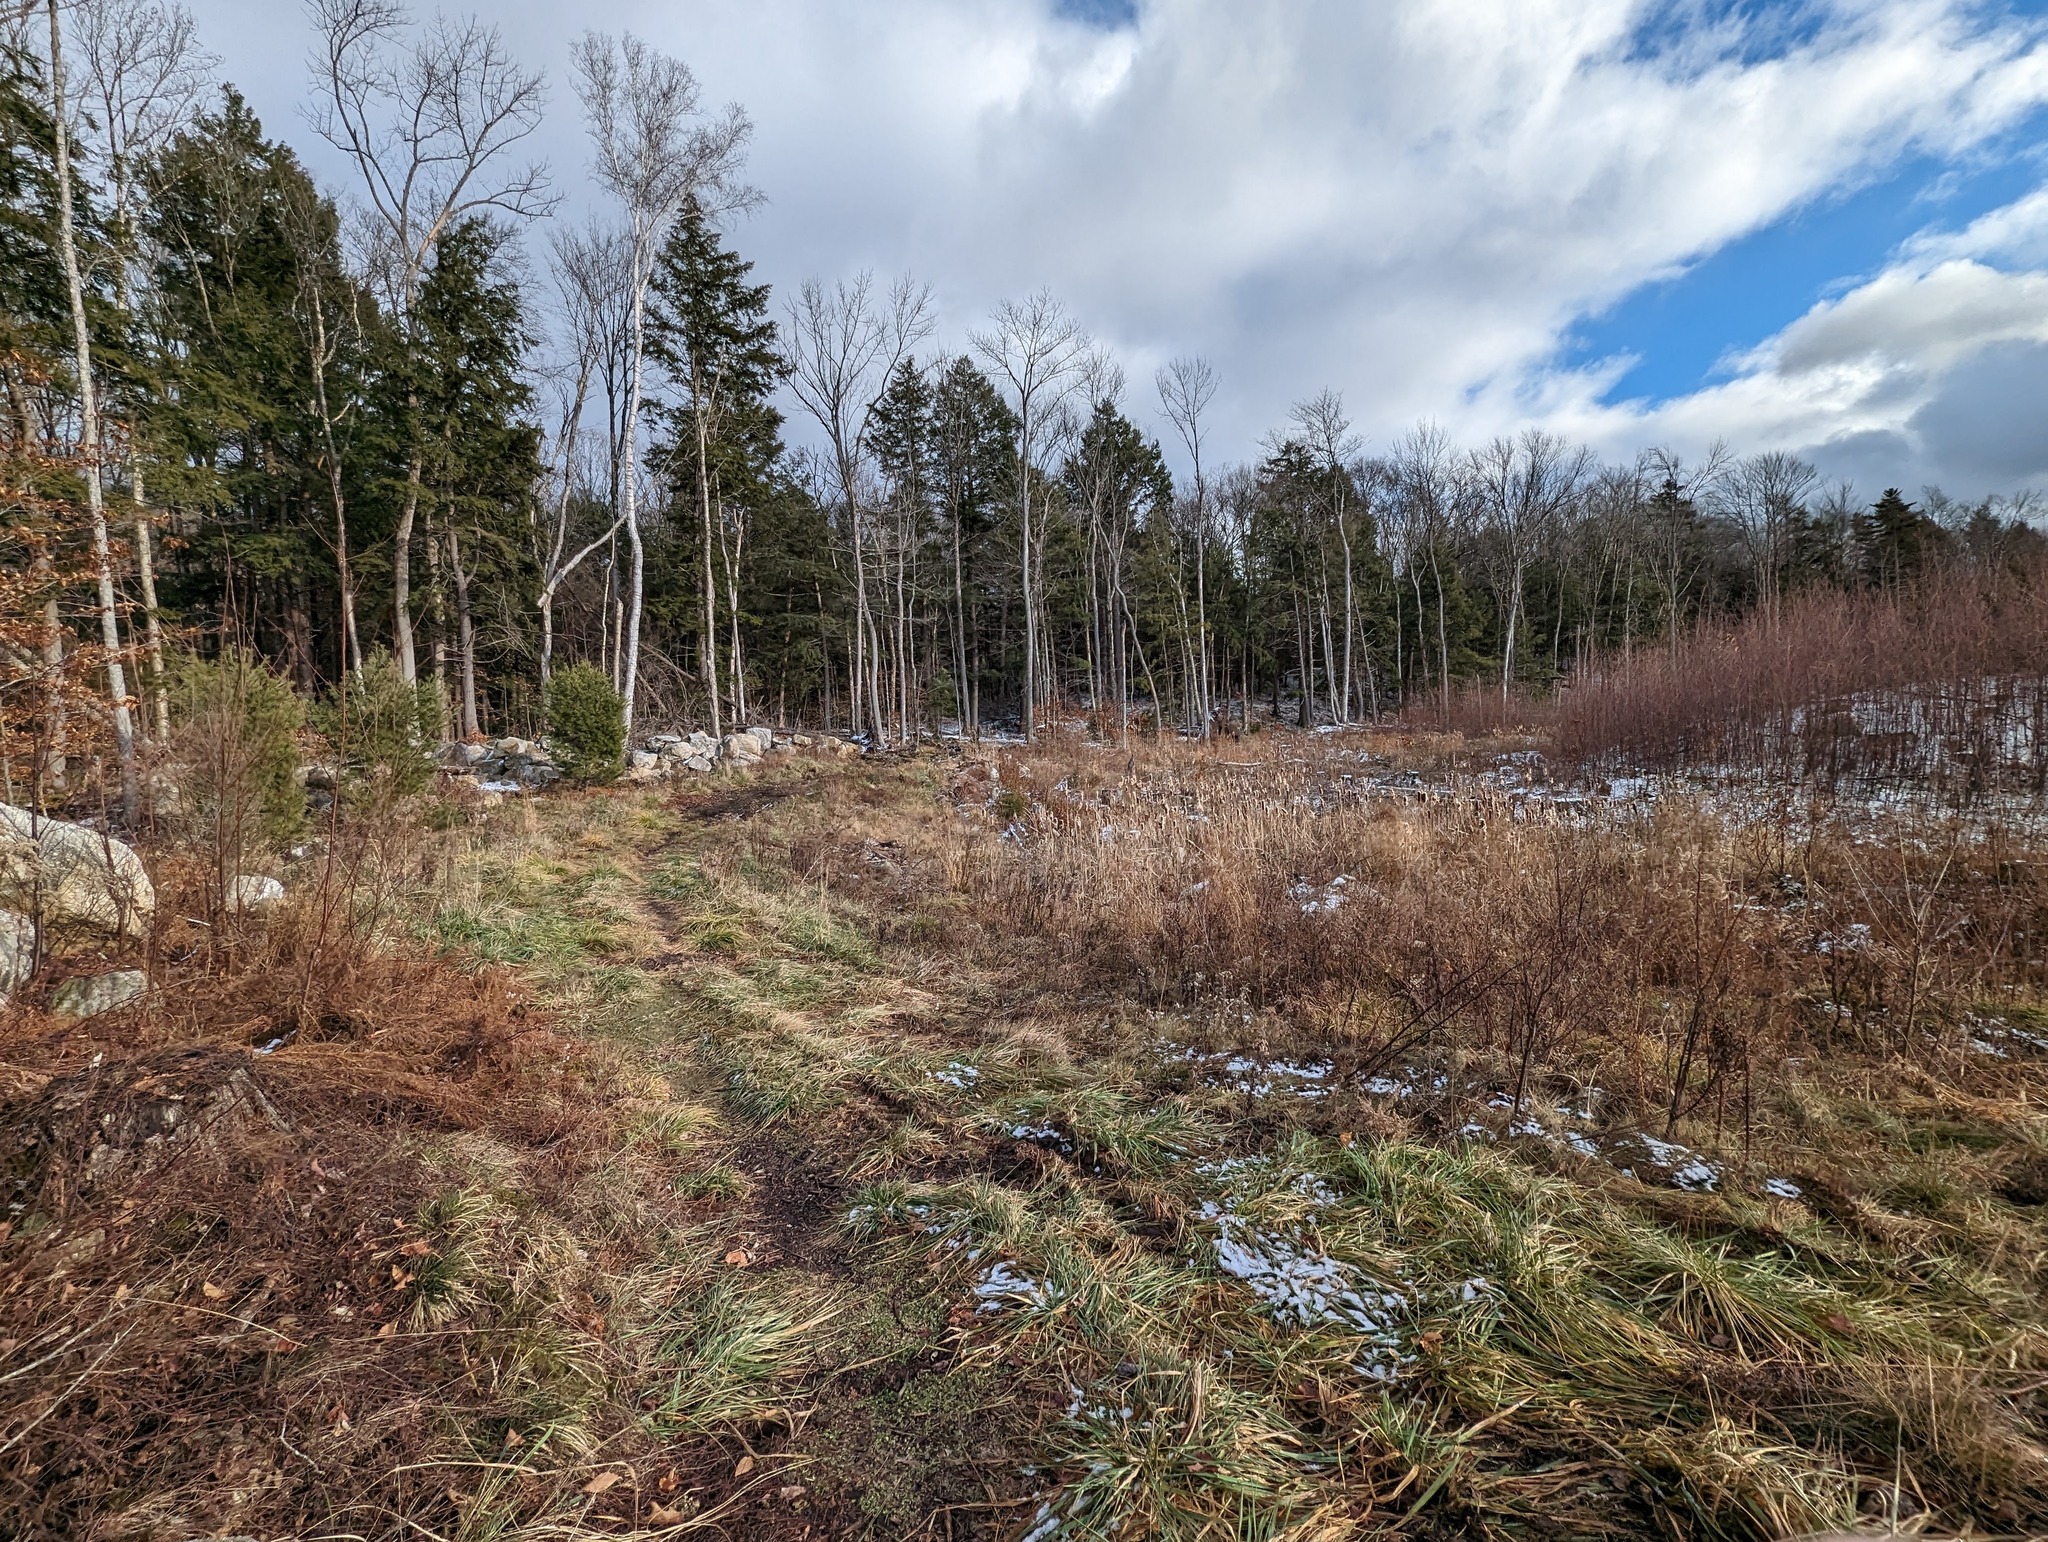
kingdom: Plantae
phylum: Tracheophyta
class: Pinopsida
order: Pinales
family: Pinaceae
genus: Tsuga
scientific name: Tsuga canadensis
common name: Eastern hemlock
